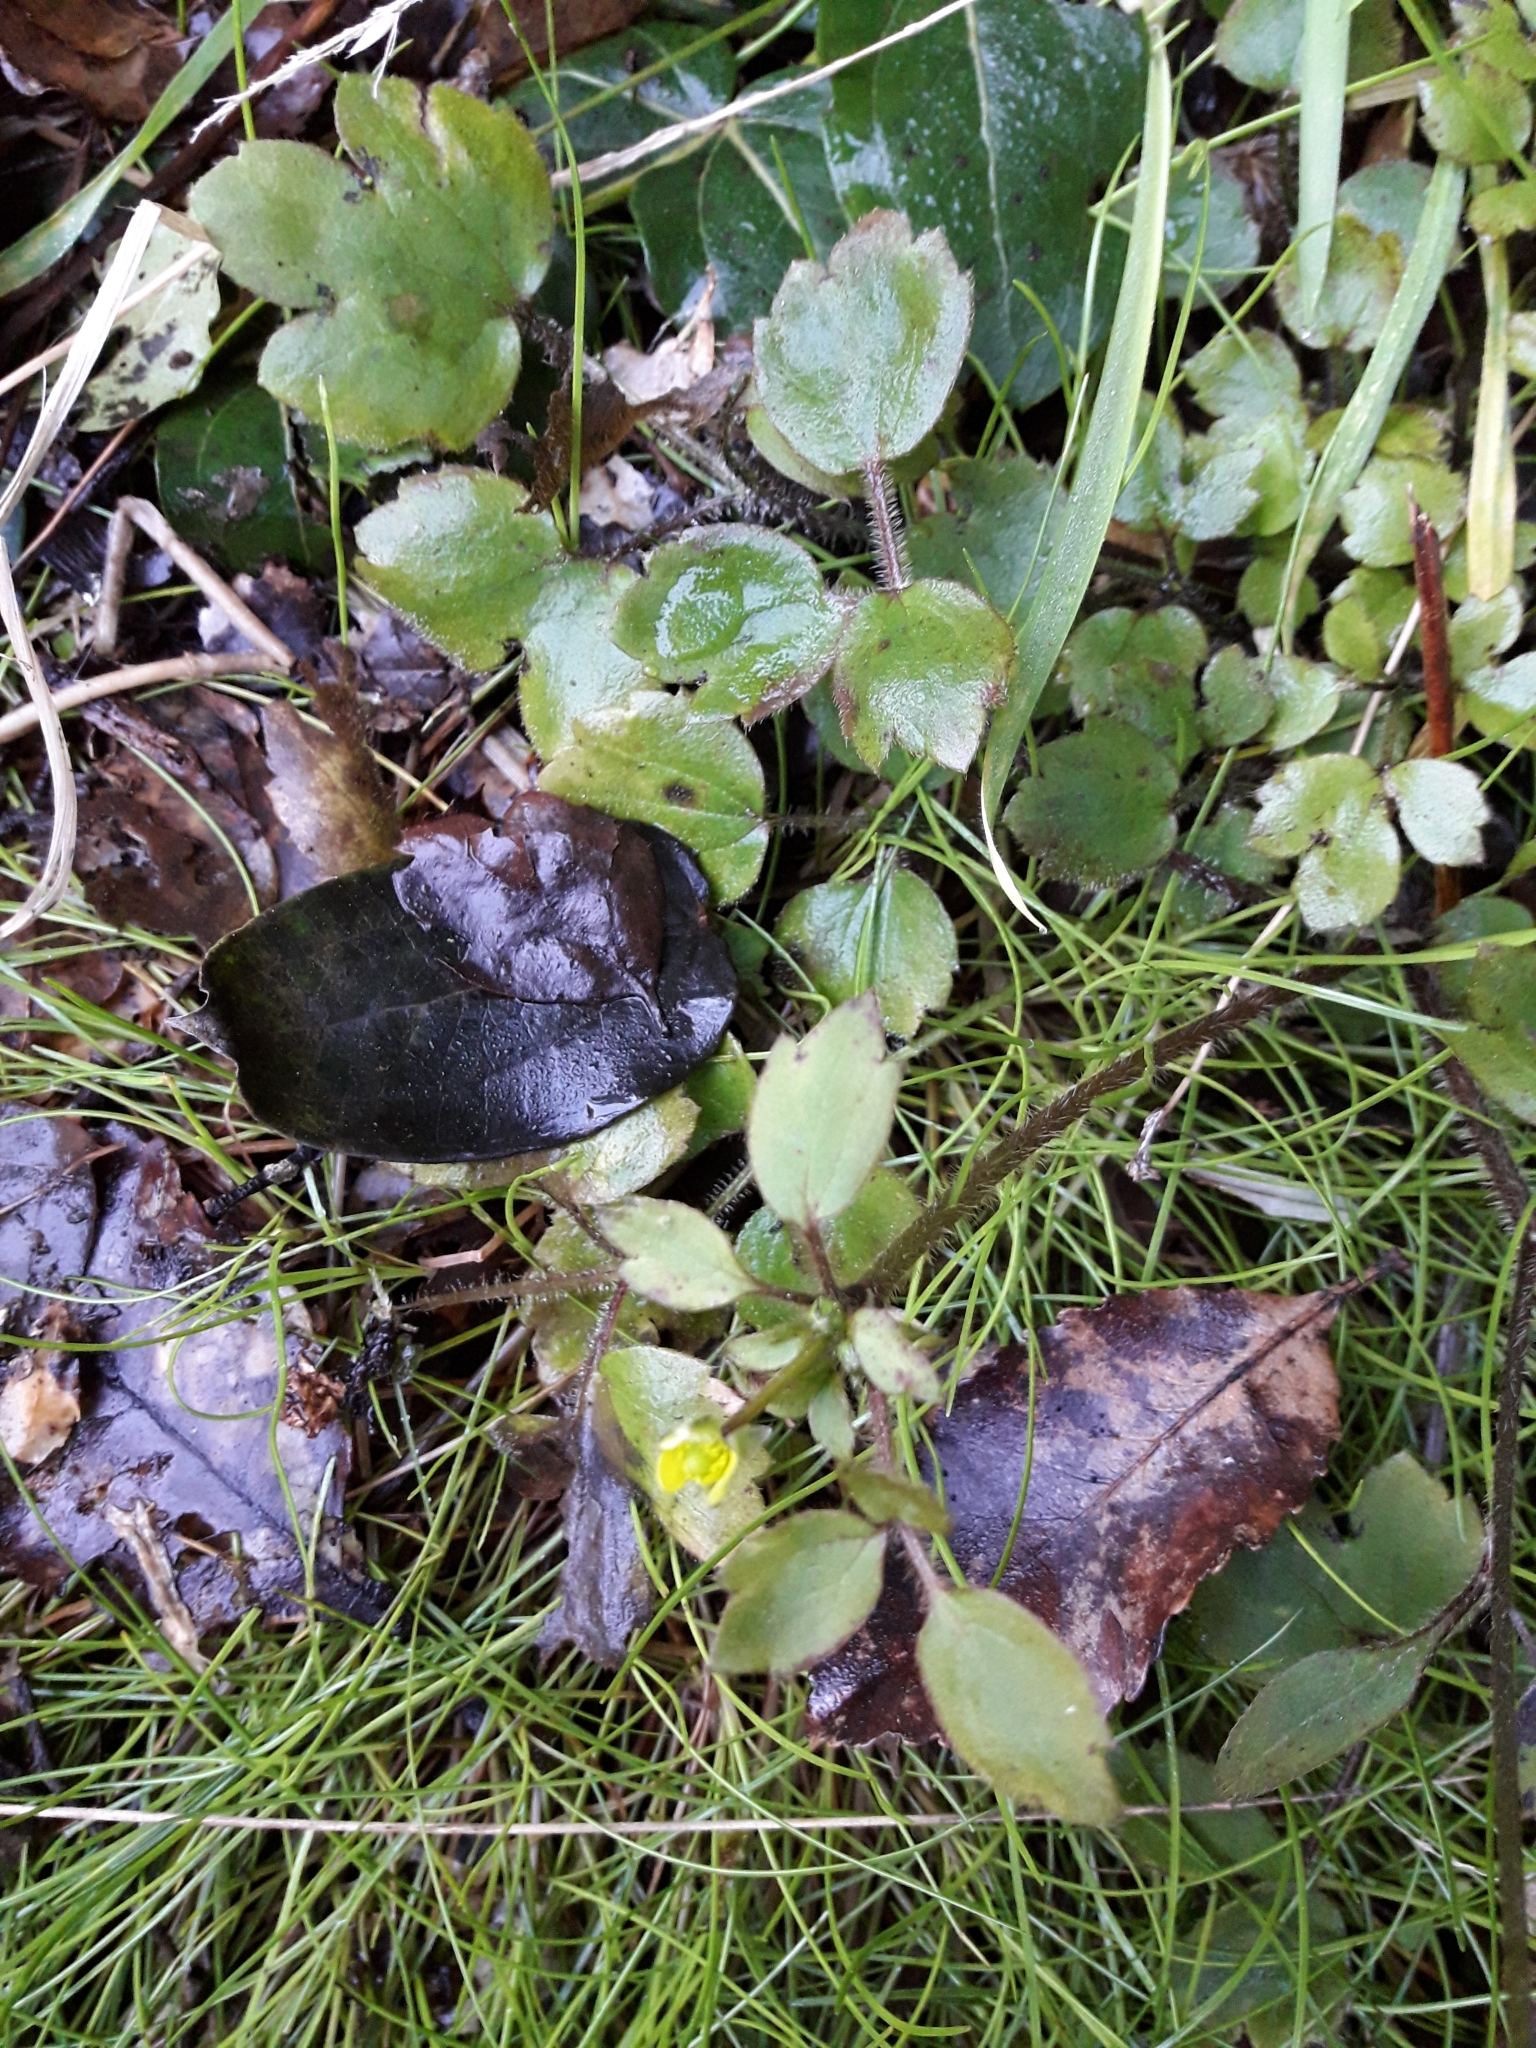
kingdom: Plantae
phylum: Tracheophyta
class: Magnoliopsida
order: Ranunculales
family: Ranunculaceae
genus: Ranunculus
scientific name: Ranunculus reflexus
